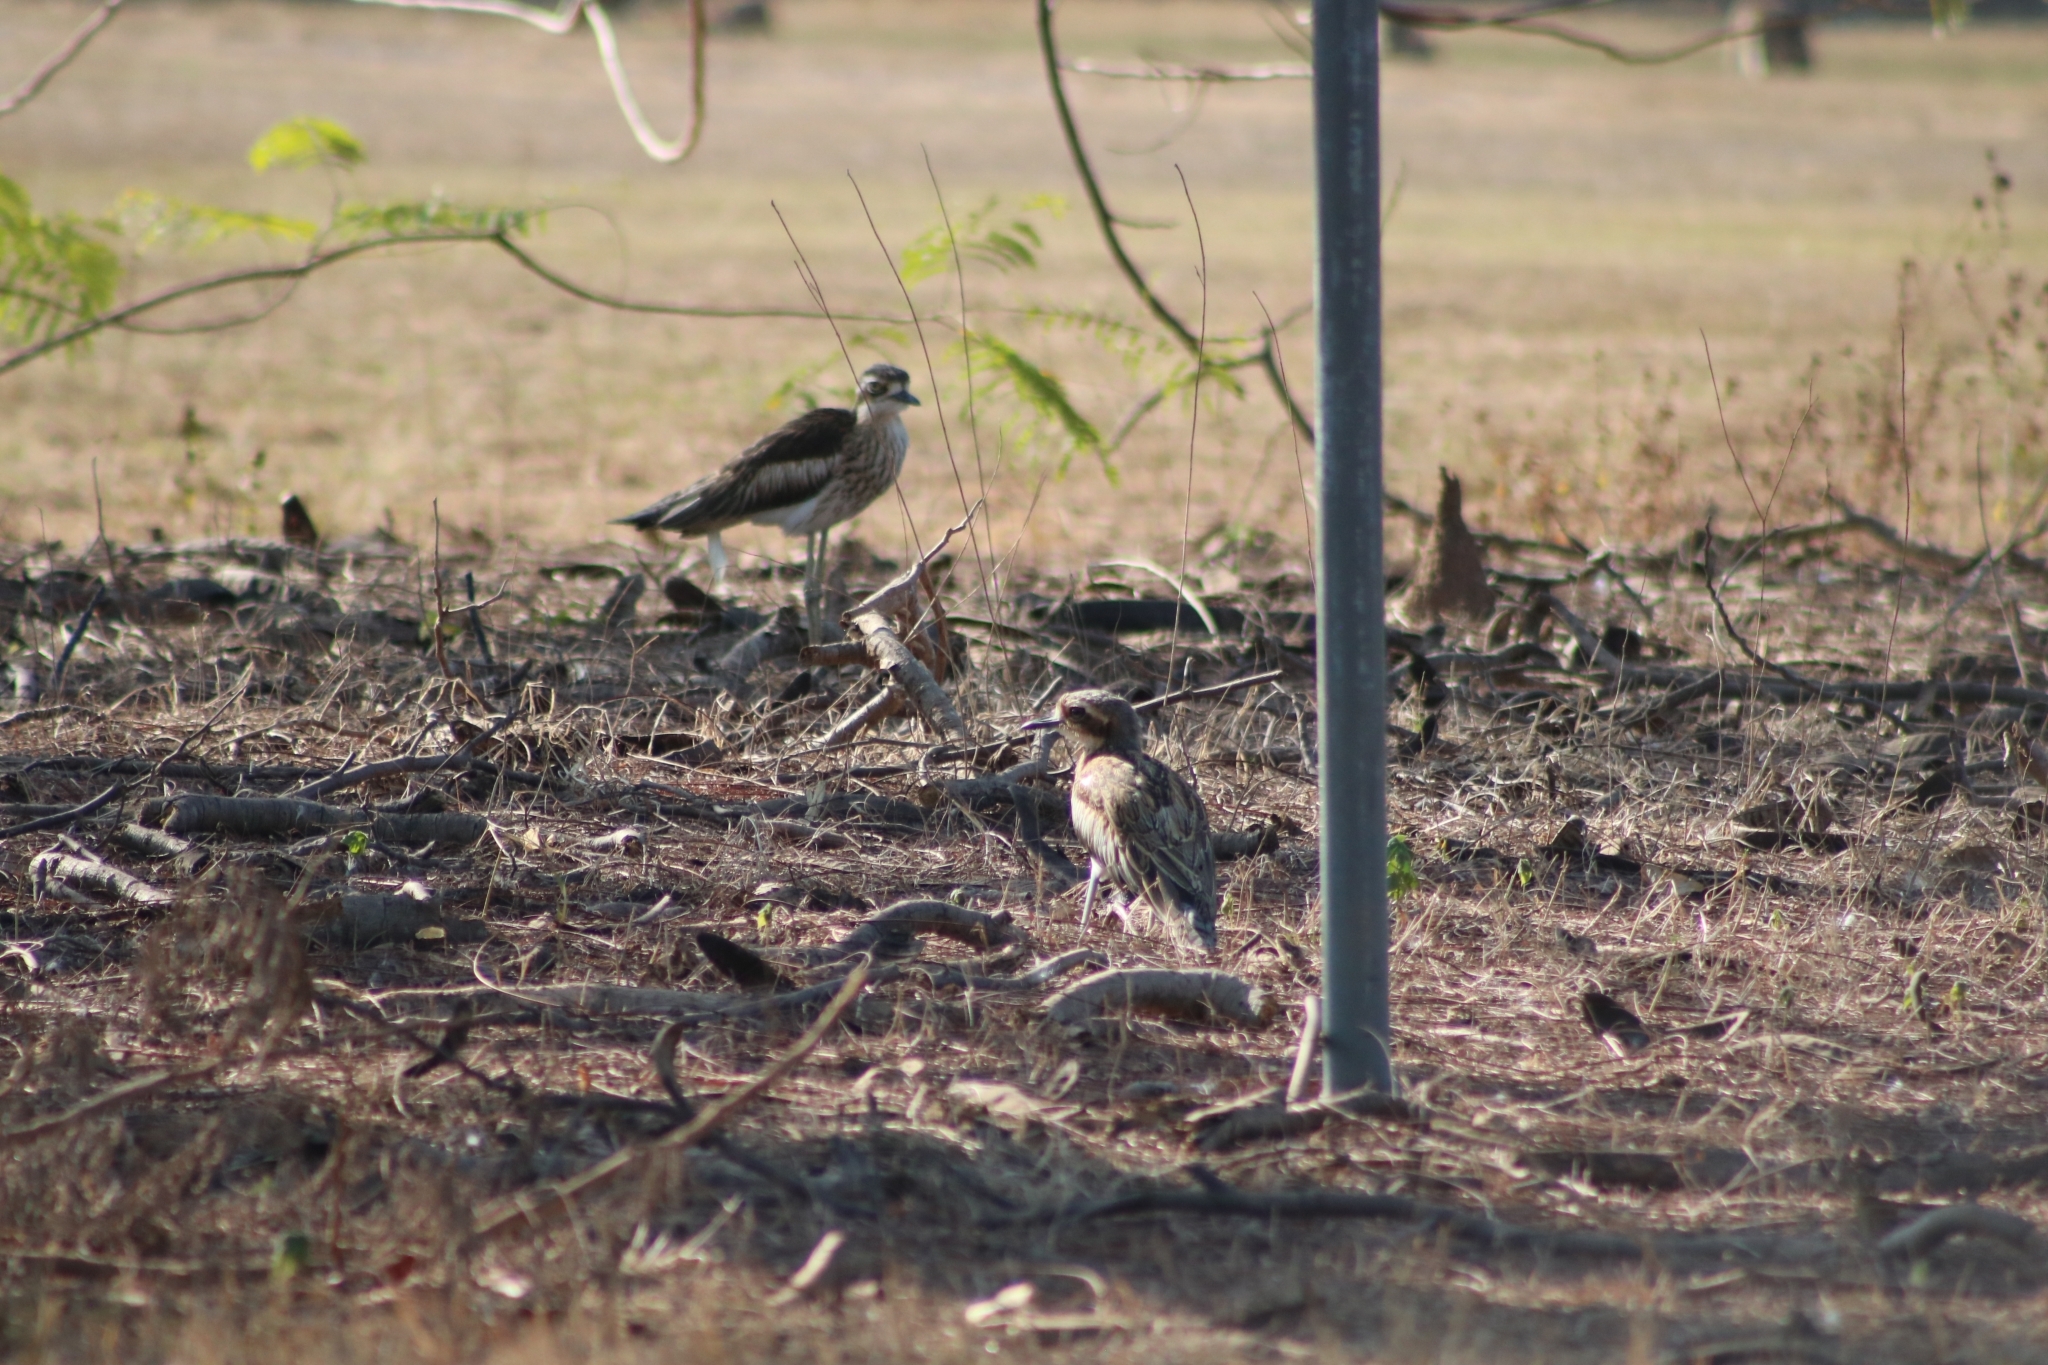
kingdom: Animalia
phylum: Chordata
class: Aves
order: Charadriiformes
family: Burhinidae
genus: Burhinus
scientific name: Burhinus grallarius
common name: Bush stone-curlew
